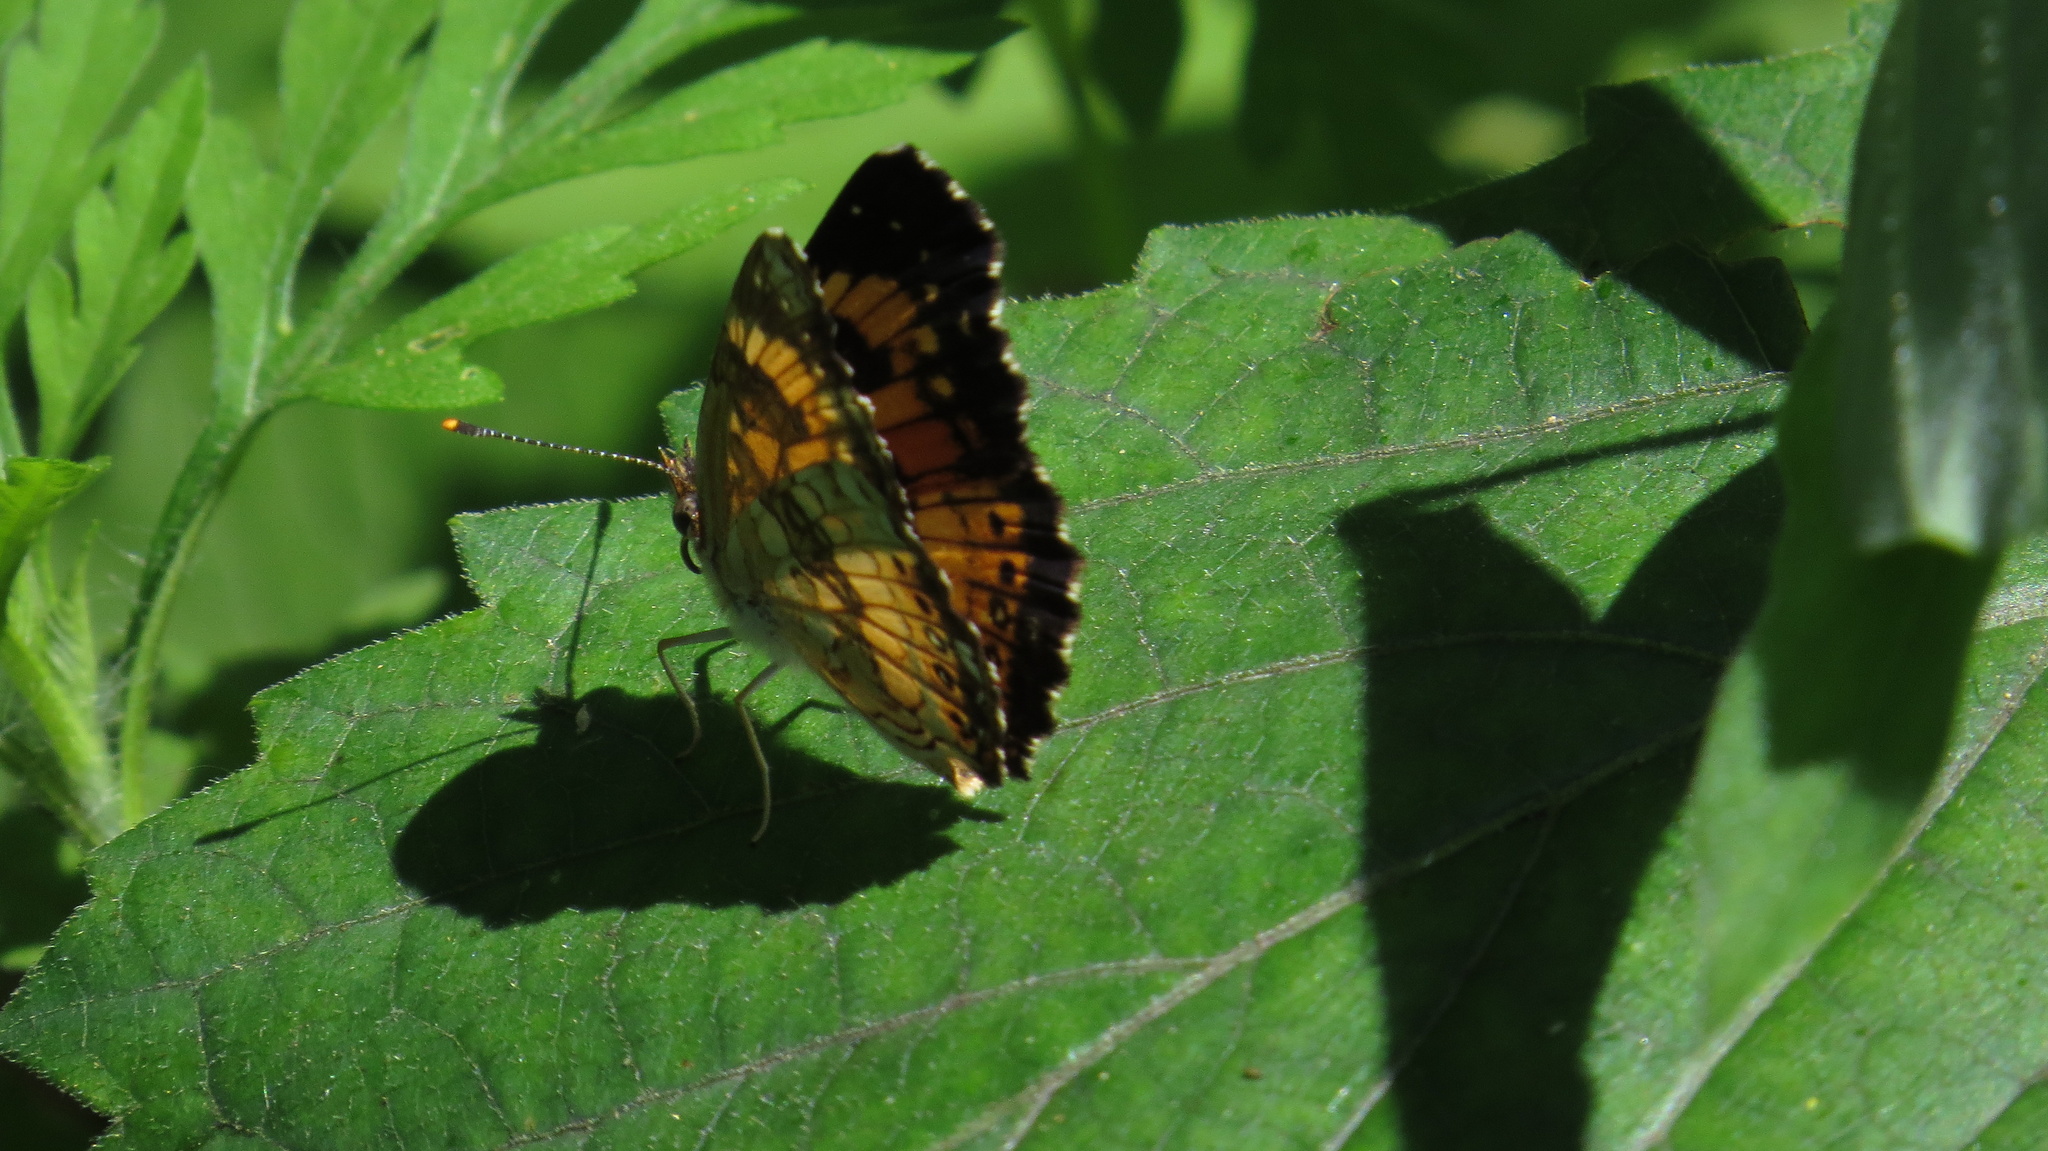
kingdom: Animalia
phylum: Arthropoda
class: Insecta
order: Lepidoptera
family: Nymphalidae
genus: Chlosyne
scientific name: Chlosyne nycteis
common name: Silvery checkerspot
